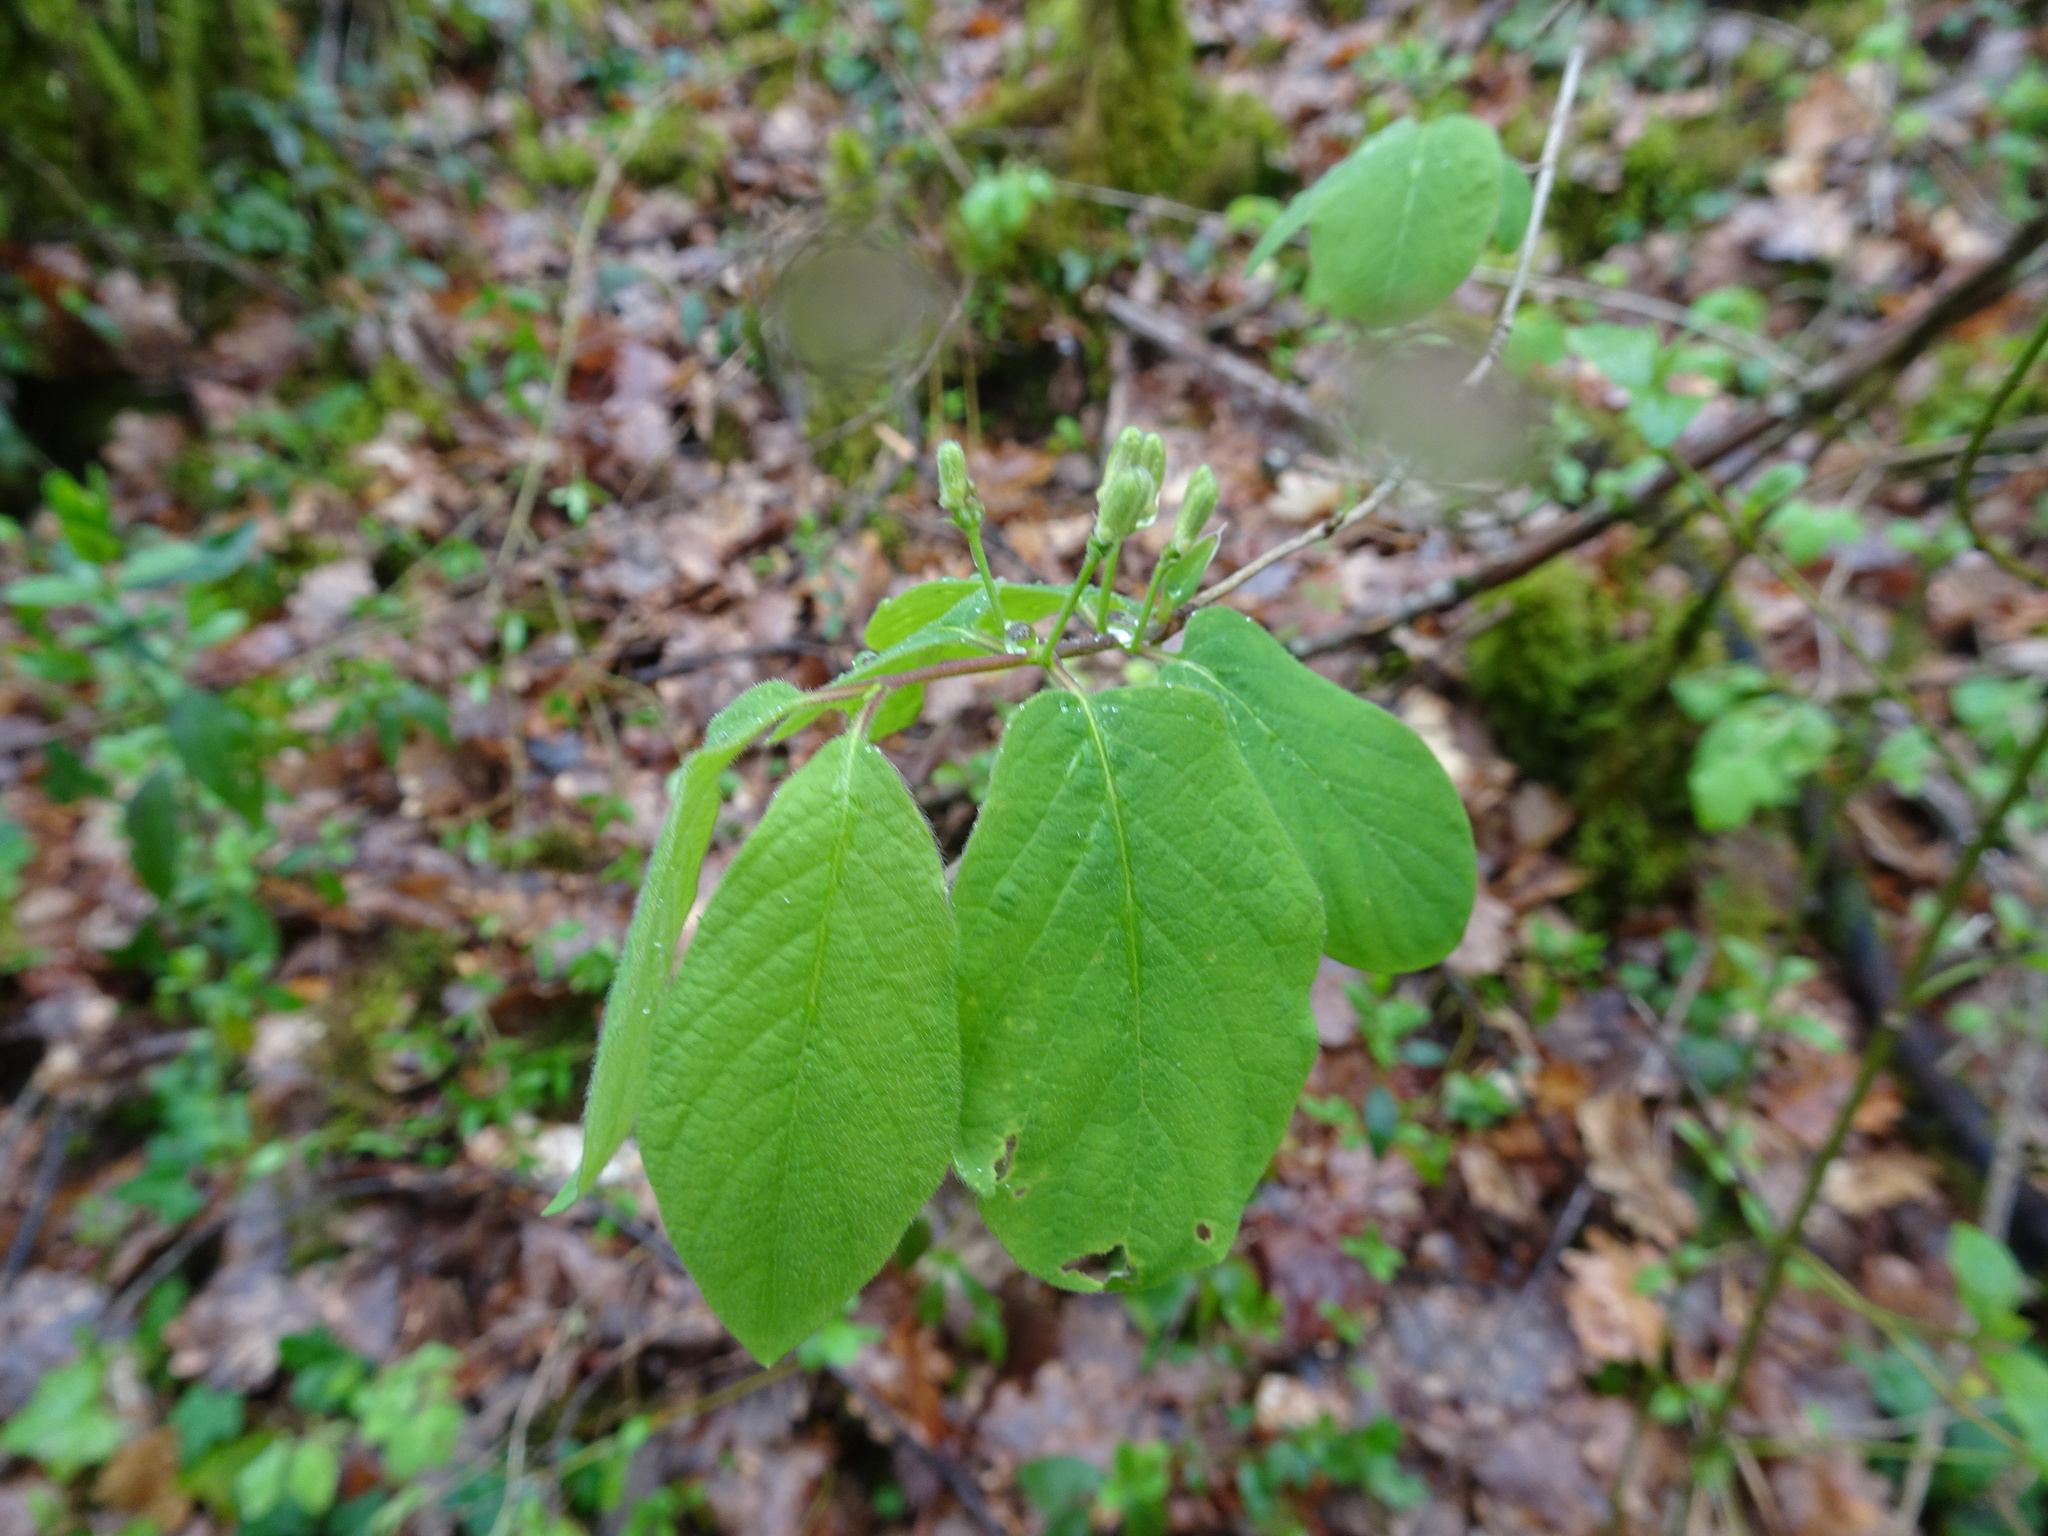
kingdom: Plantae
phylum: Tracheophyta
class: Magnoliopsida
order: Dipsacales
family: Caprifoliaceae
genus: Lonicera
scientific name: Lonicera xylosteum
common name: Fly honeysuckle
